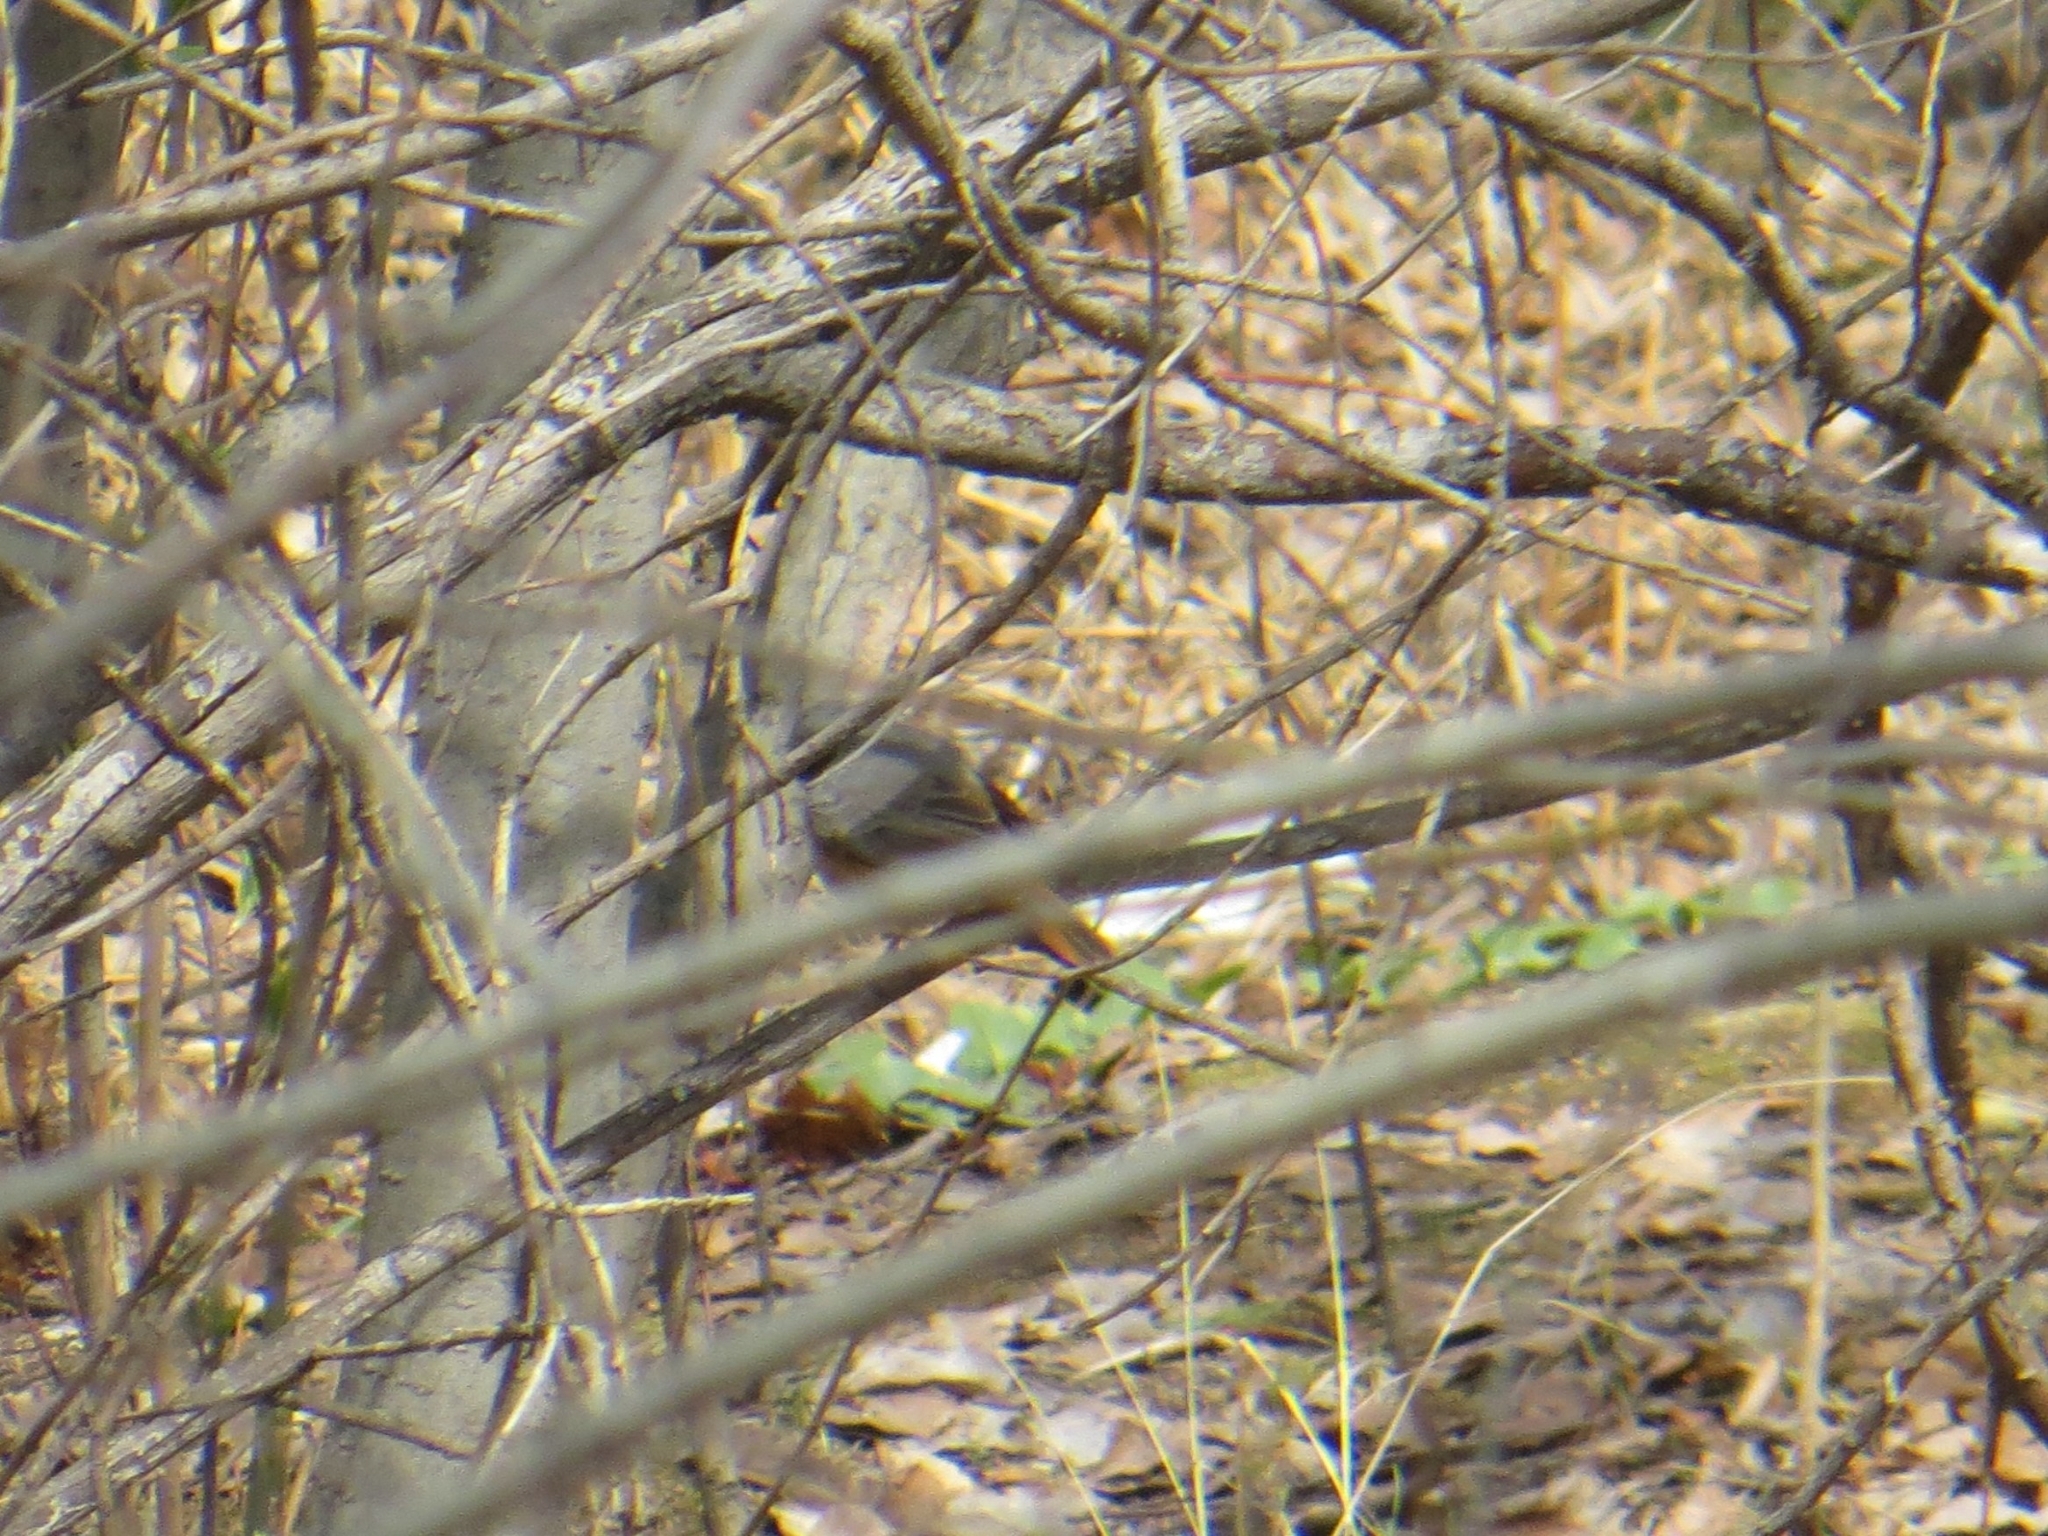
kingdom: Animalia
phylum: Chordata
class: Aves
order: Passeriformes
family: Muscicapidae
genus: Phoenicurus
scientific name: Phoenicurus phoenicurus
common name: Common redstart
